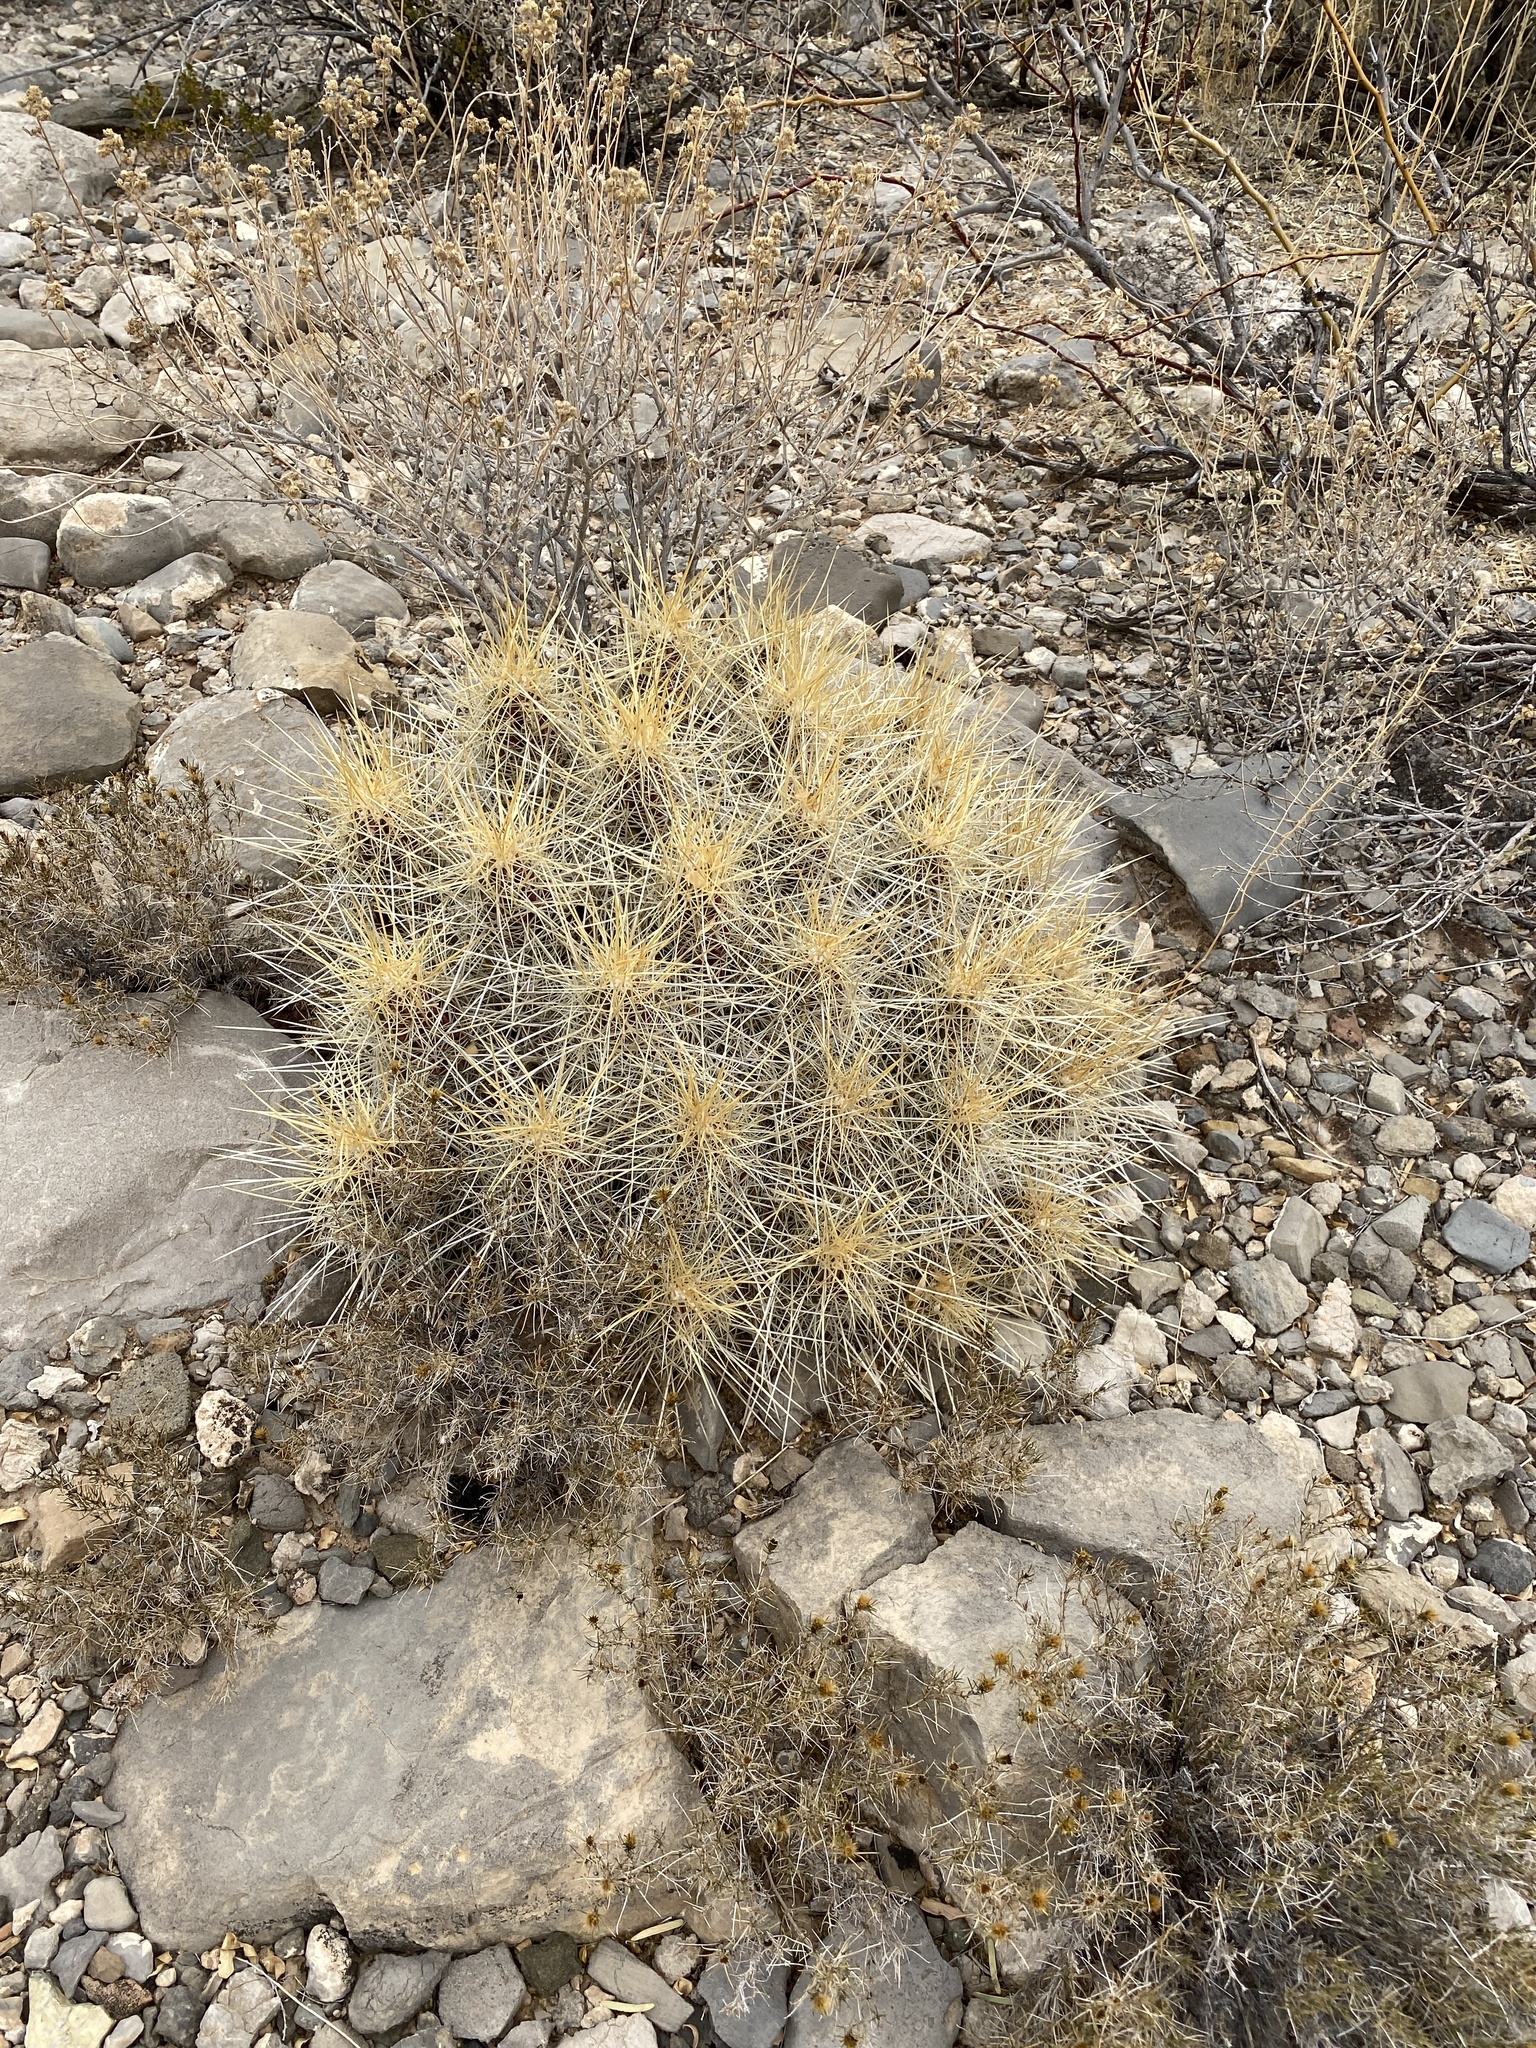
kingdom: Plantae
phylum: Tracheophyta
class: Magnoliopsida
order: Caryophyllales
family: Cactaceae
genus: Echinocereus
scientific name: Echinocereus stramineus
